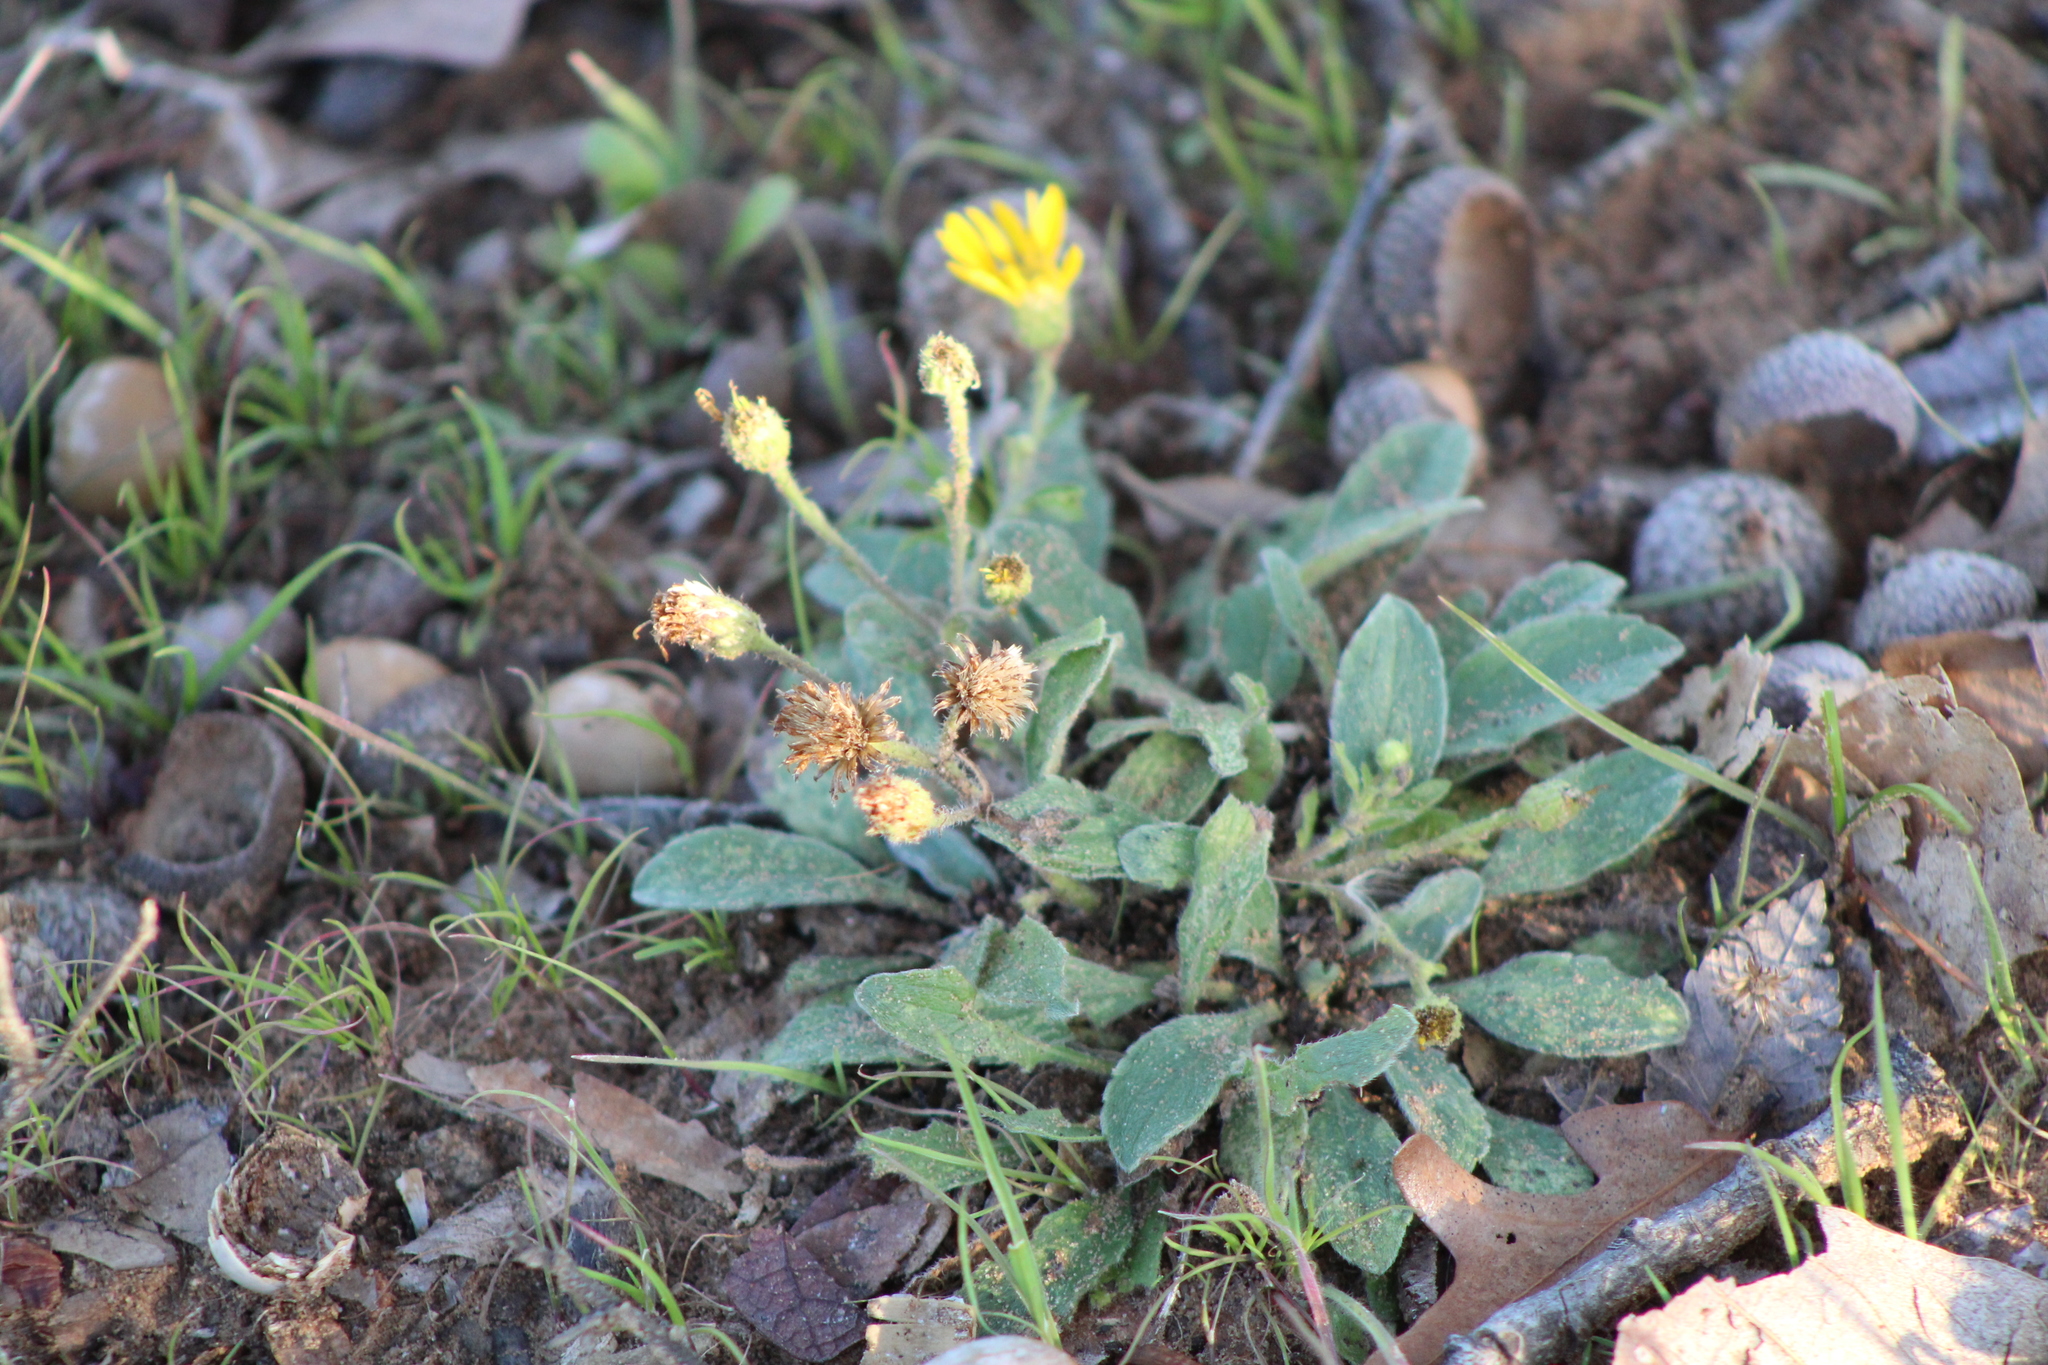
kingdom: Plantae
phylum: Tracheophyta
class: Magnoliopsida
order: Asterales
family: Asteraceae
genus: Heterotheca
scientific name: Heterotheca subaxillaris
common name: Camphorweed
